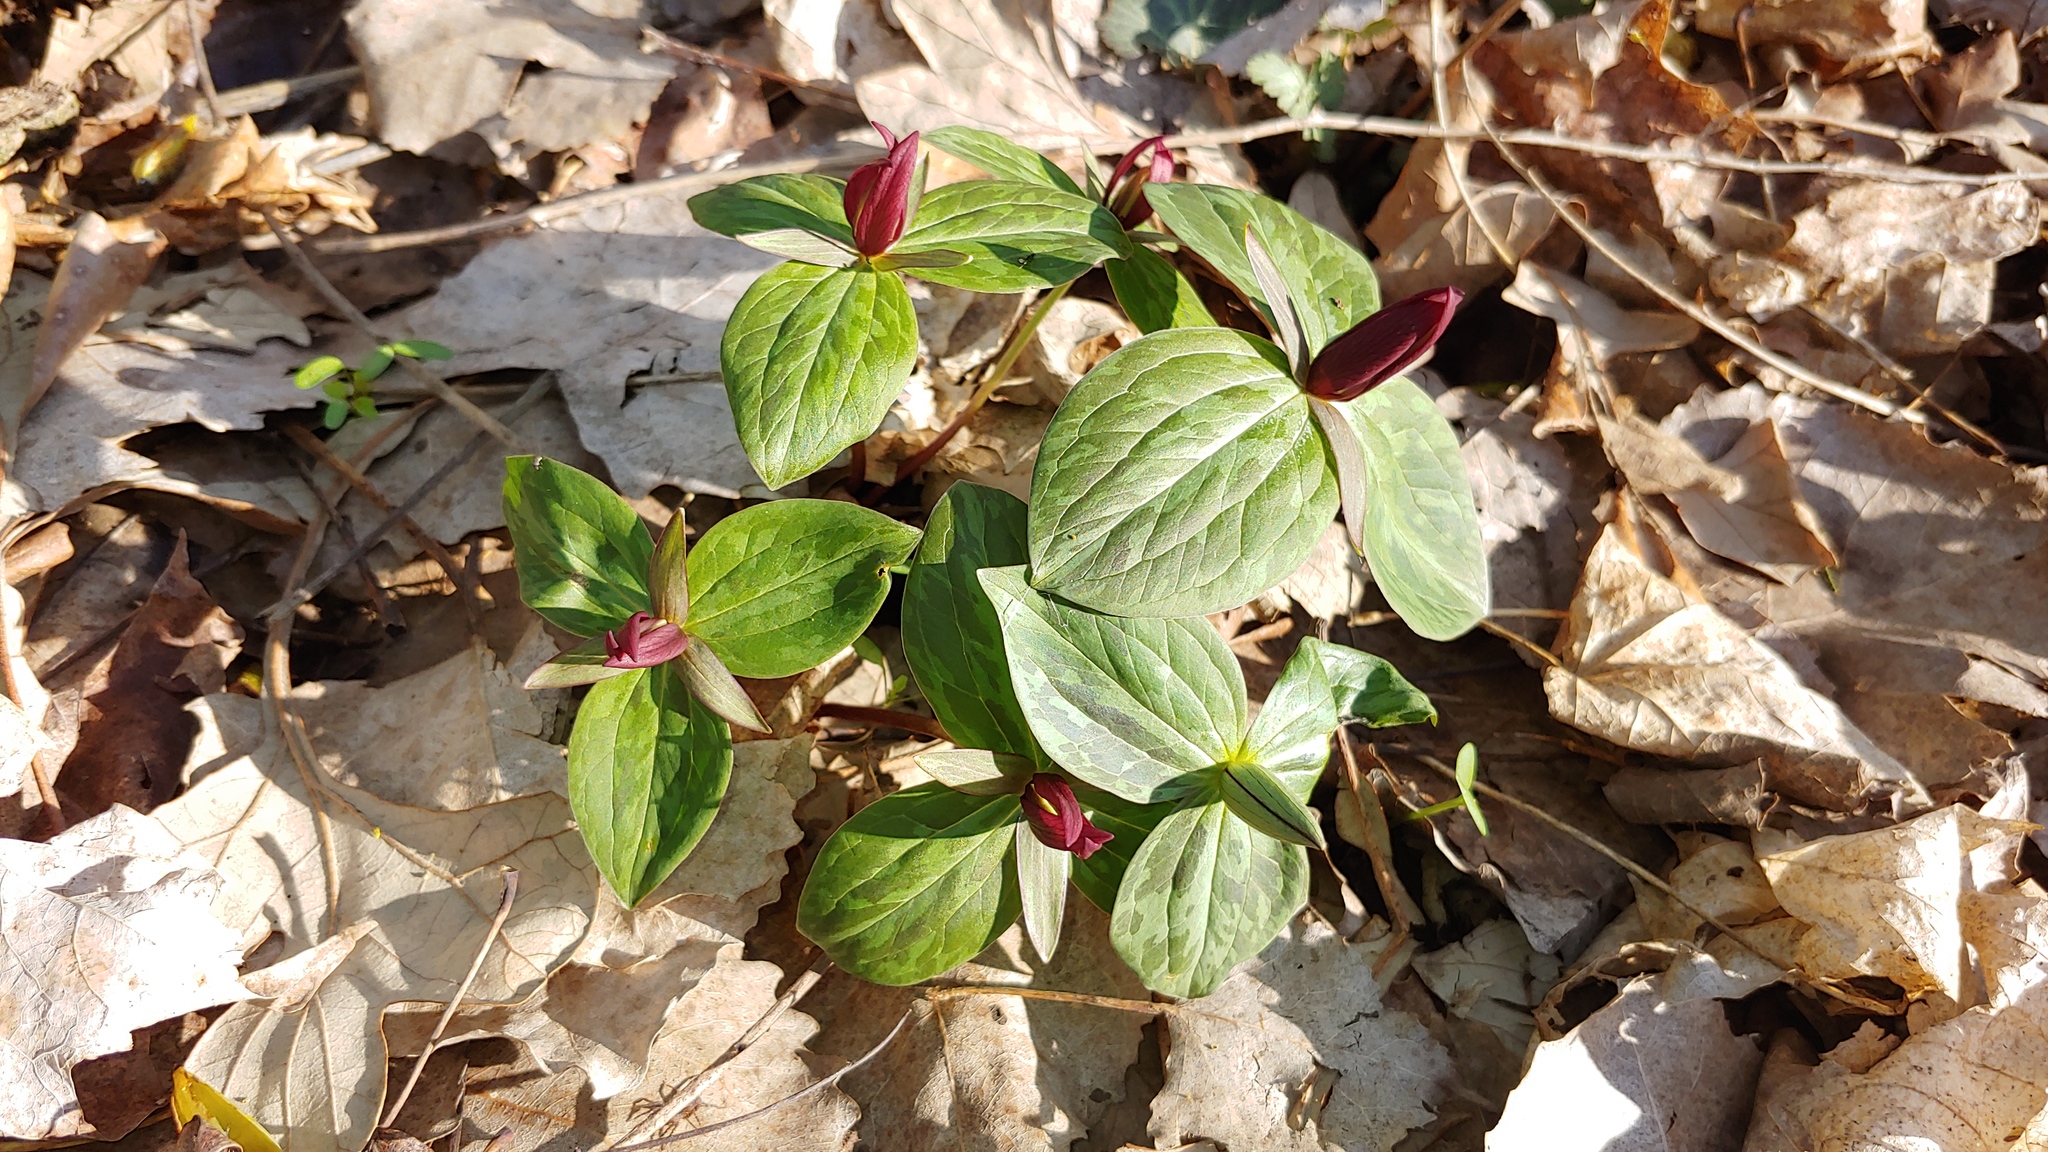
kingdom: Plantae
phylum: Tracheophyta
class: Liliopsida
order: Liliales
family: Melanthiaceae
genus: Trillium
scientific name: Trillium sessile
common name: Sessile trillium
